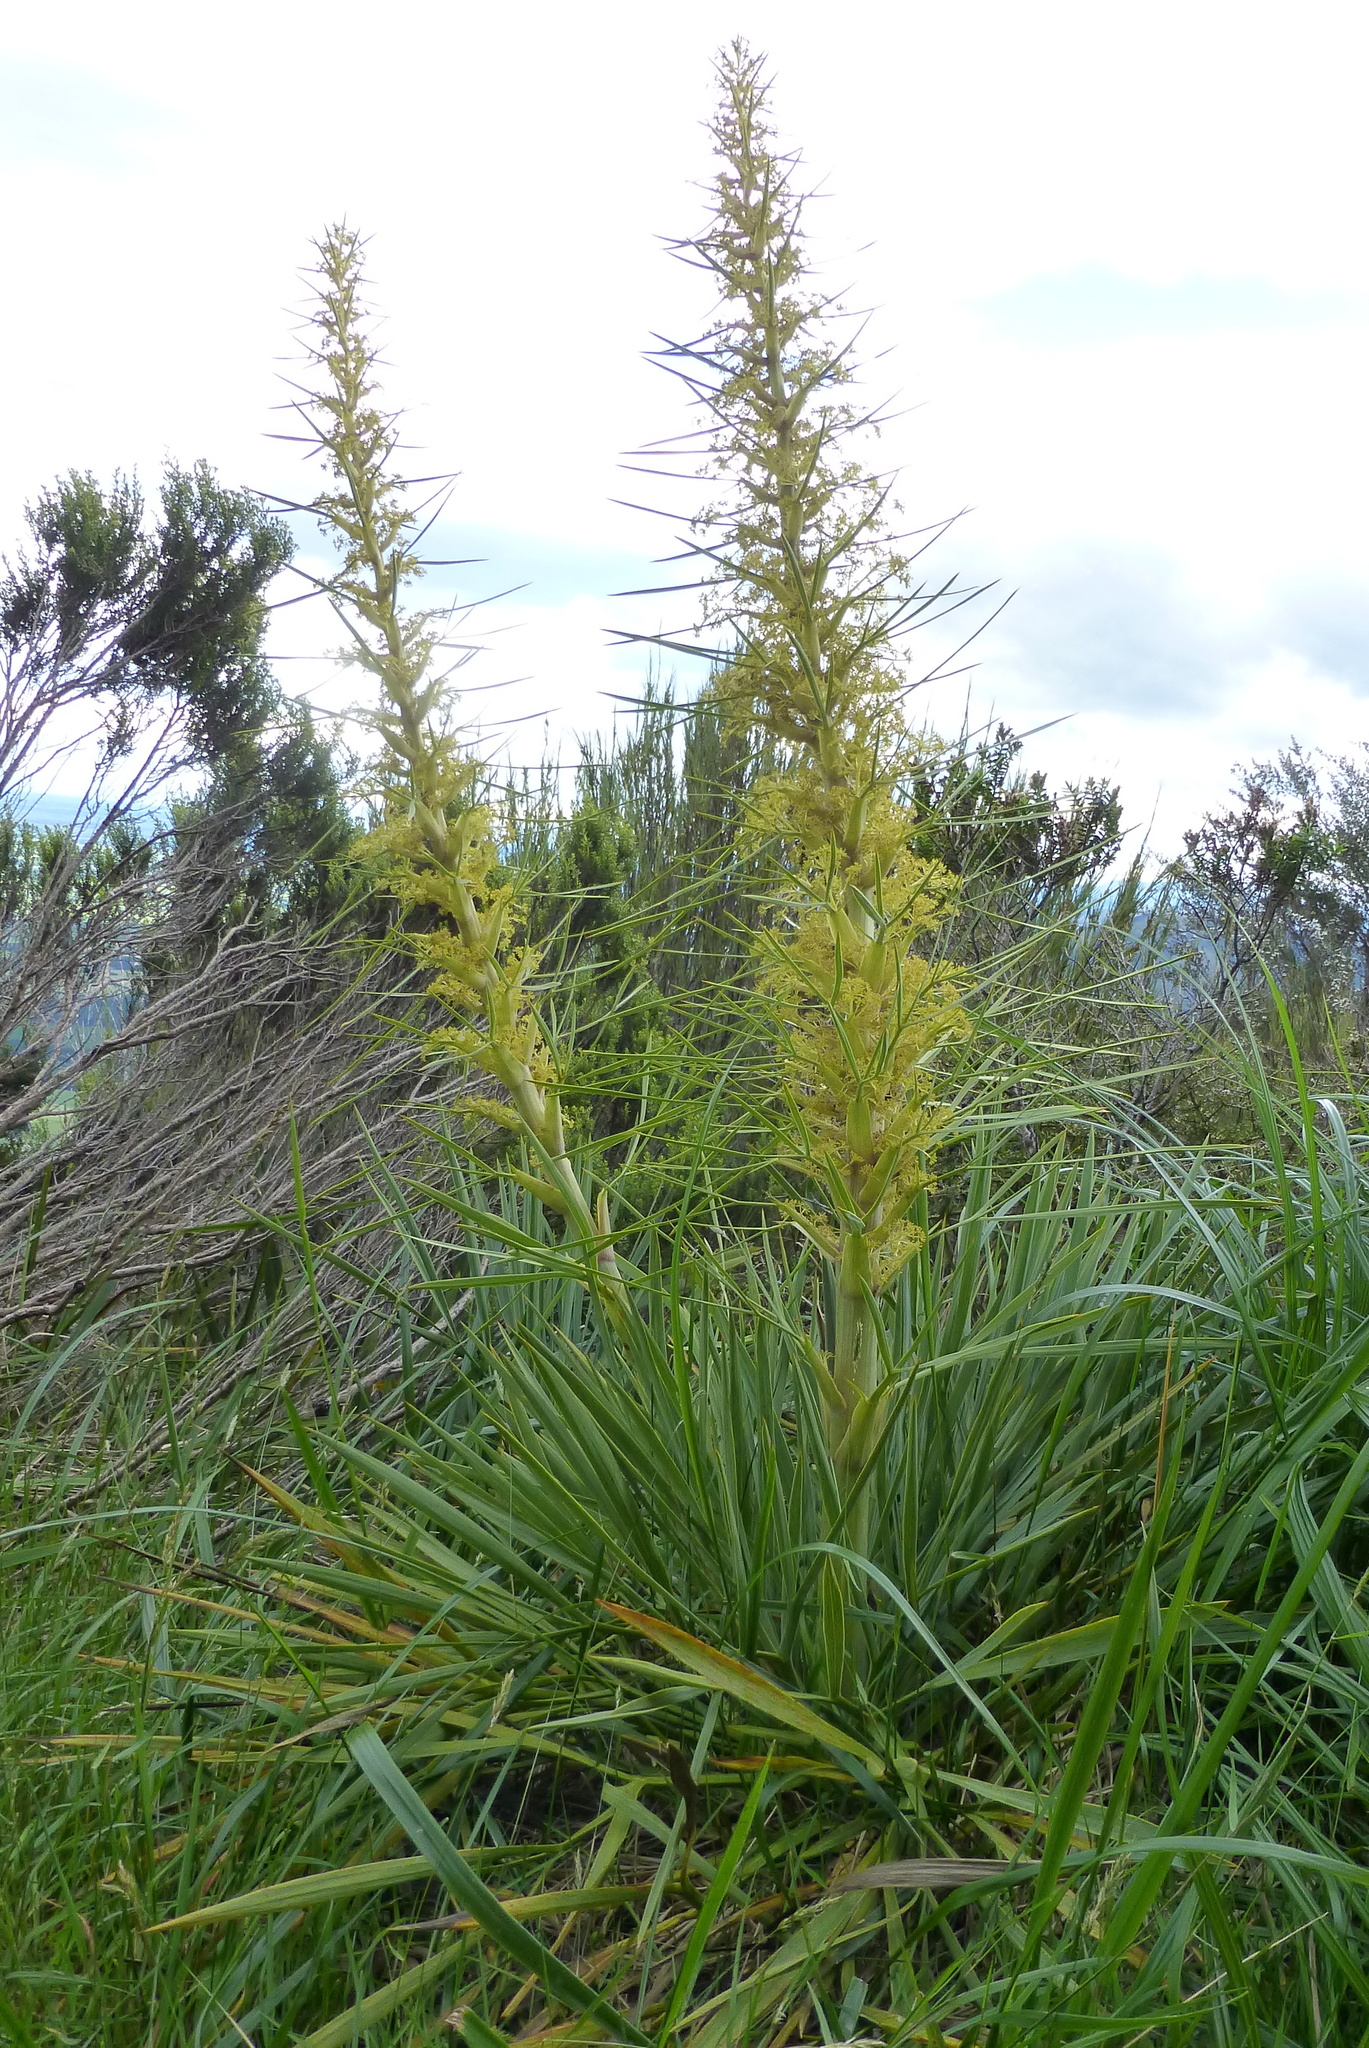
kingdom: Plantae
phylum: Tracheophyta
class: Magnoliopsida
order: Apiales
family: Apiaceae
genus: Aciphylla
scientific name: Aciphylla scott-thomsonii
